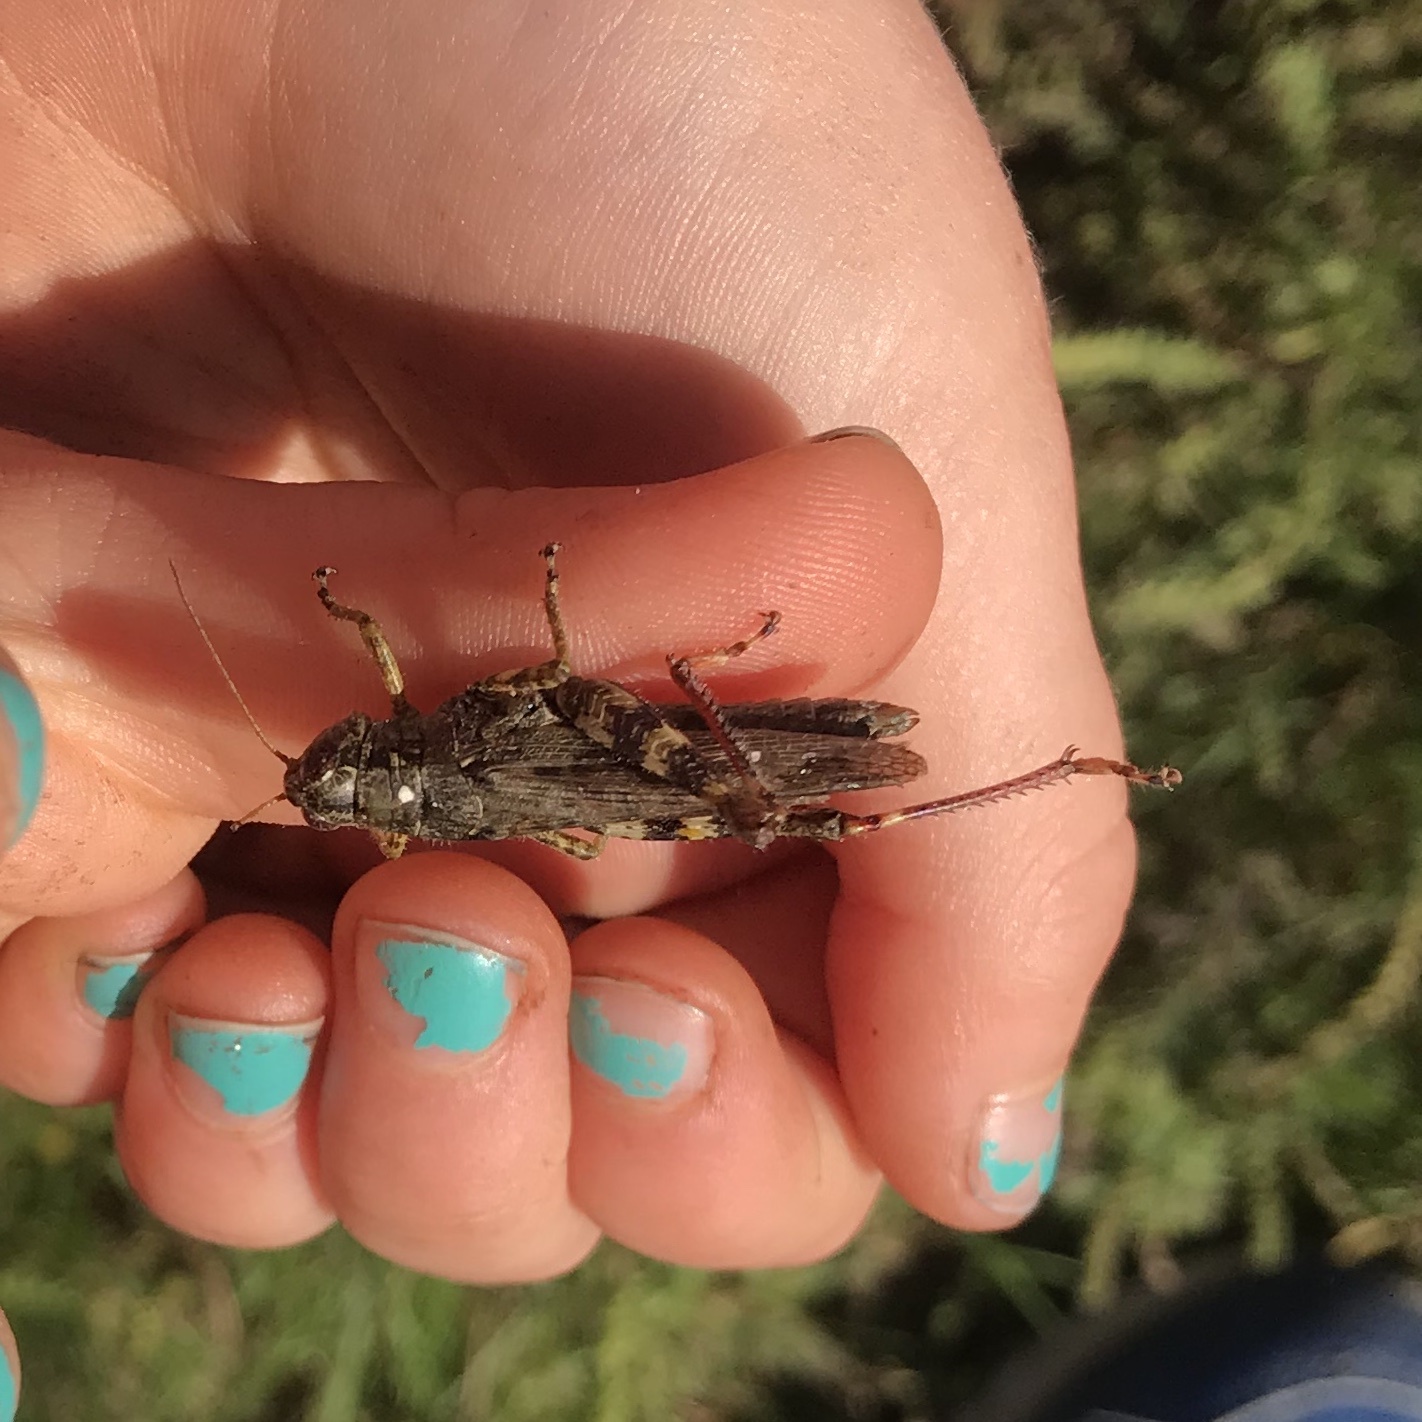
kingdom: Animalia
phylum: Arthropoda
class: Insecta
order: Orthoptera
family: Acrididae
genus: Melanoplus
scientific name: Melanoplus punctulatus
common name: Pine-tree spur-throat grasshopper
